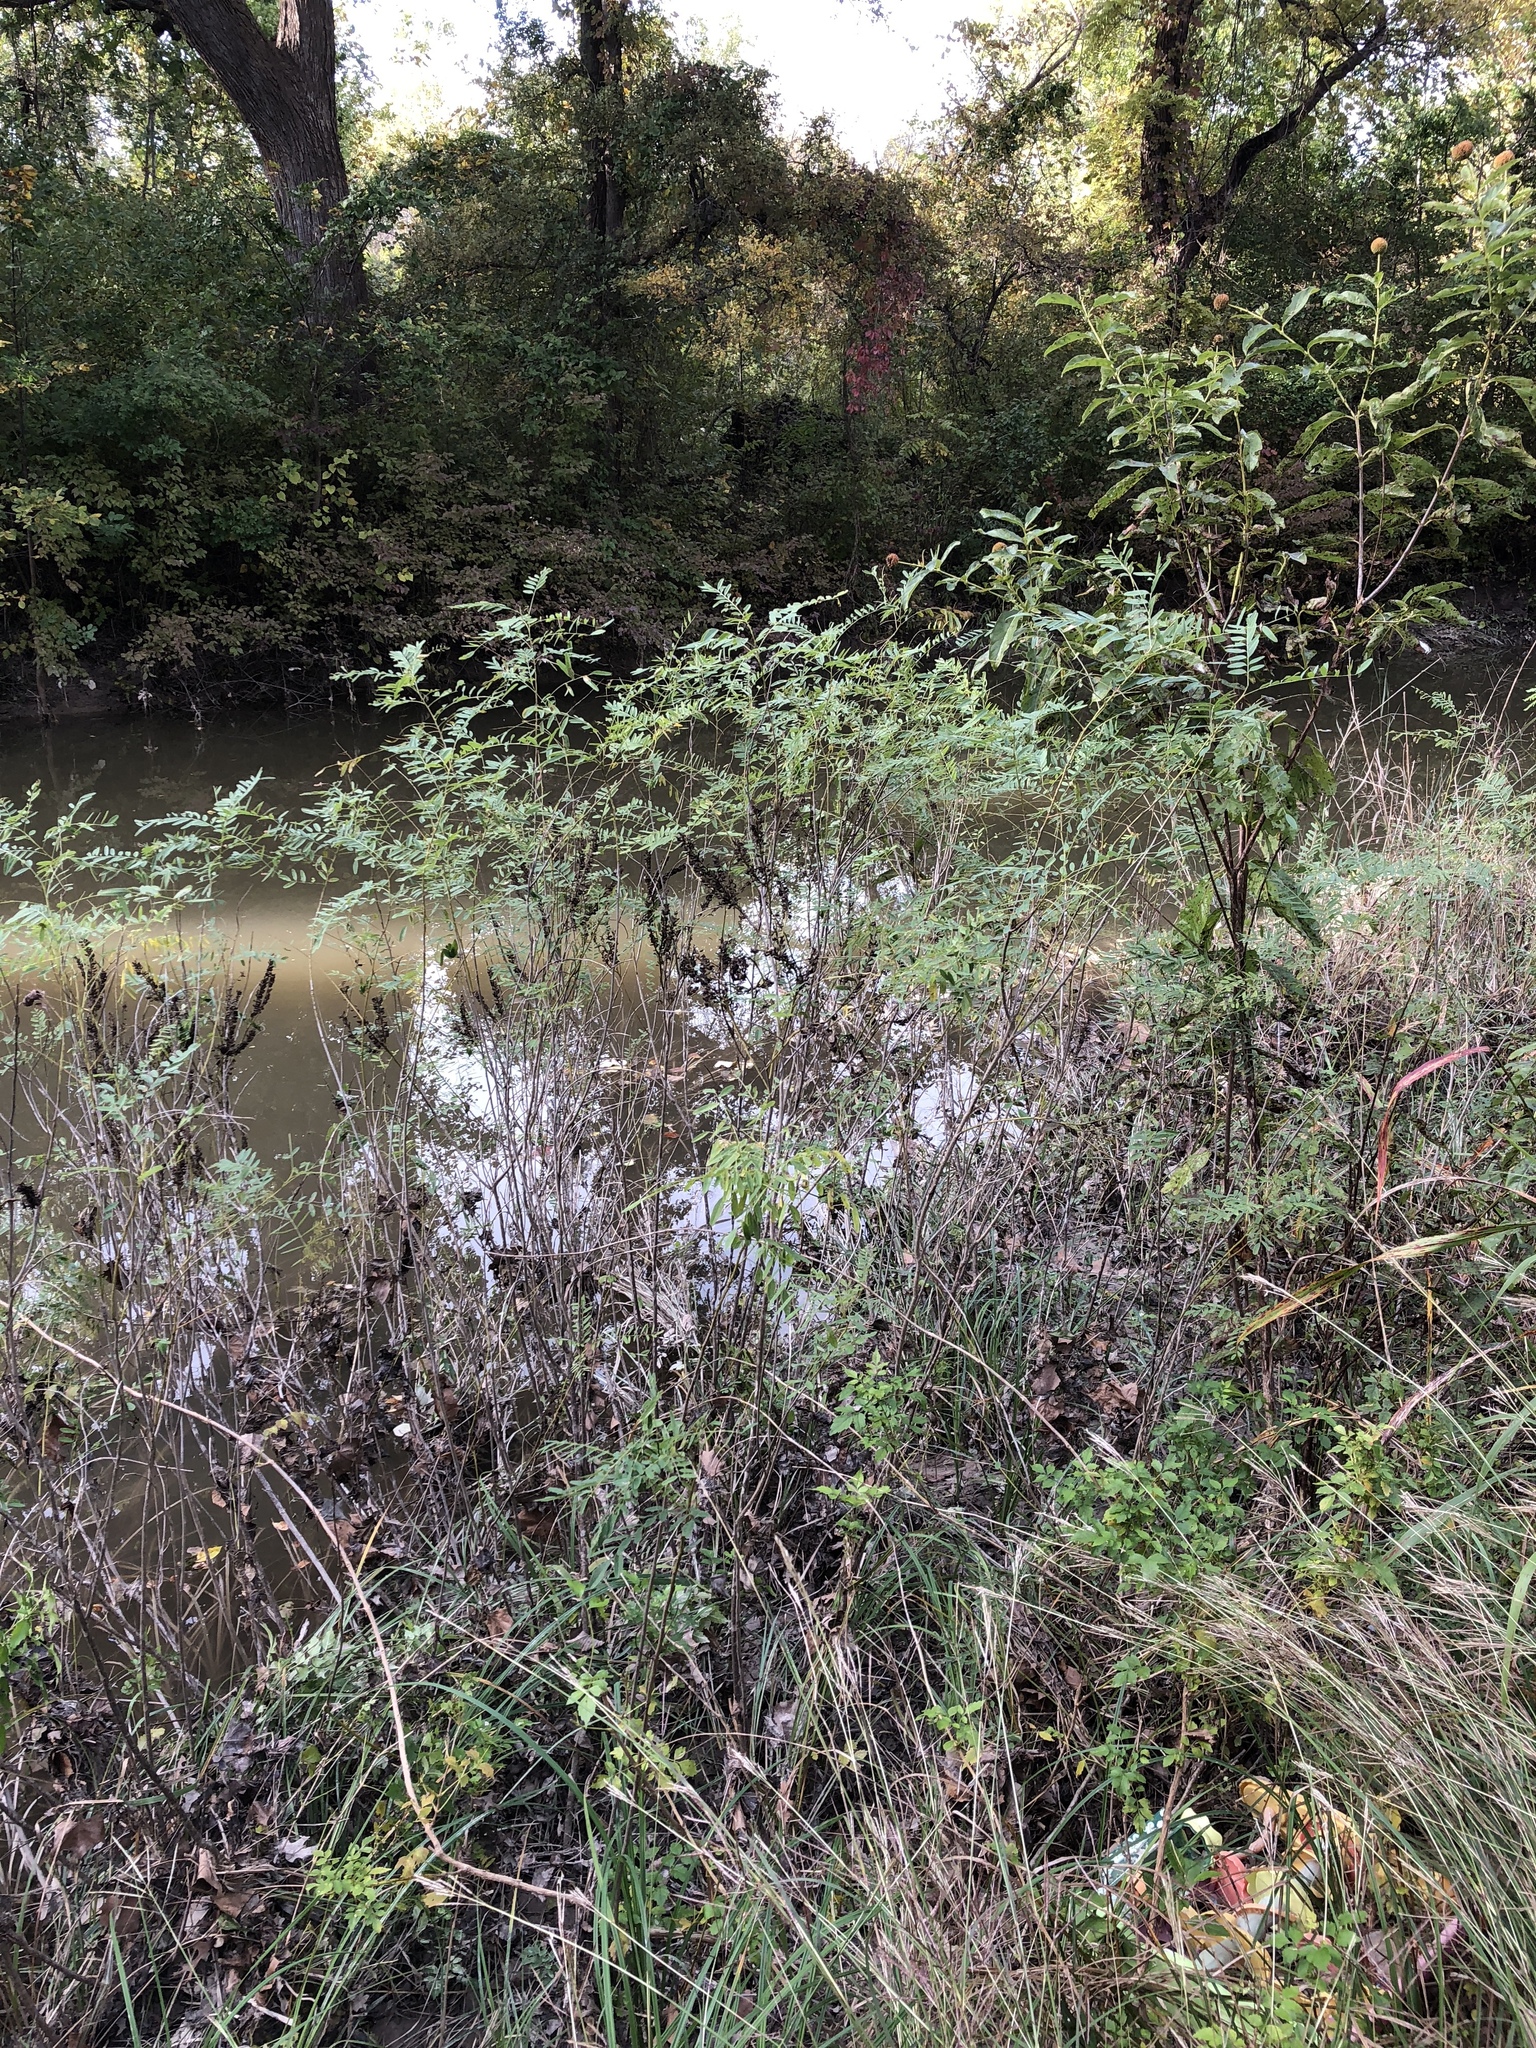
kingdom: Plantae
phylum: Tracheophyta
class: Magnoliopsida
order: Fabales
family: Fabaceae
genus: Amorpha
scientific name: Amorpha fruticosa
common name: False indigo
